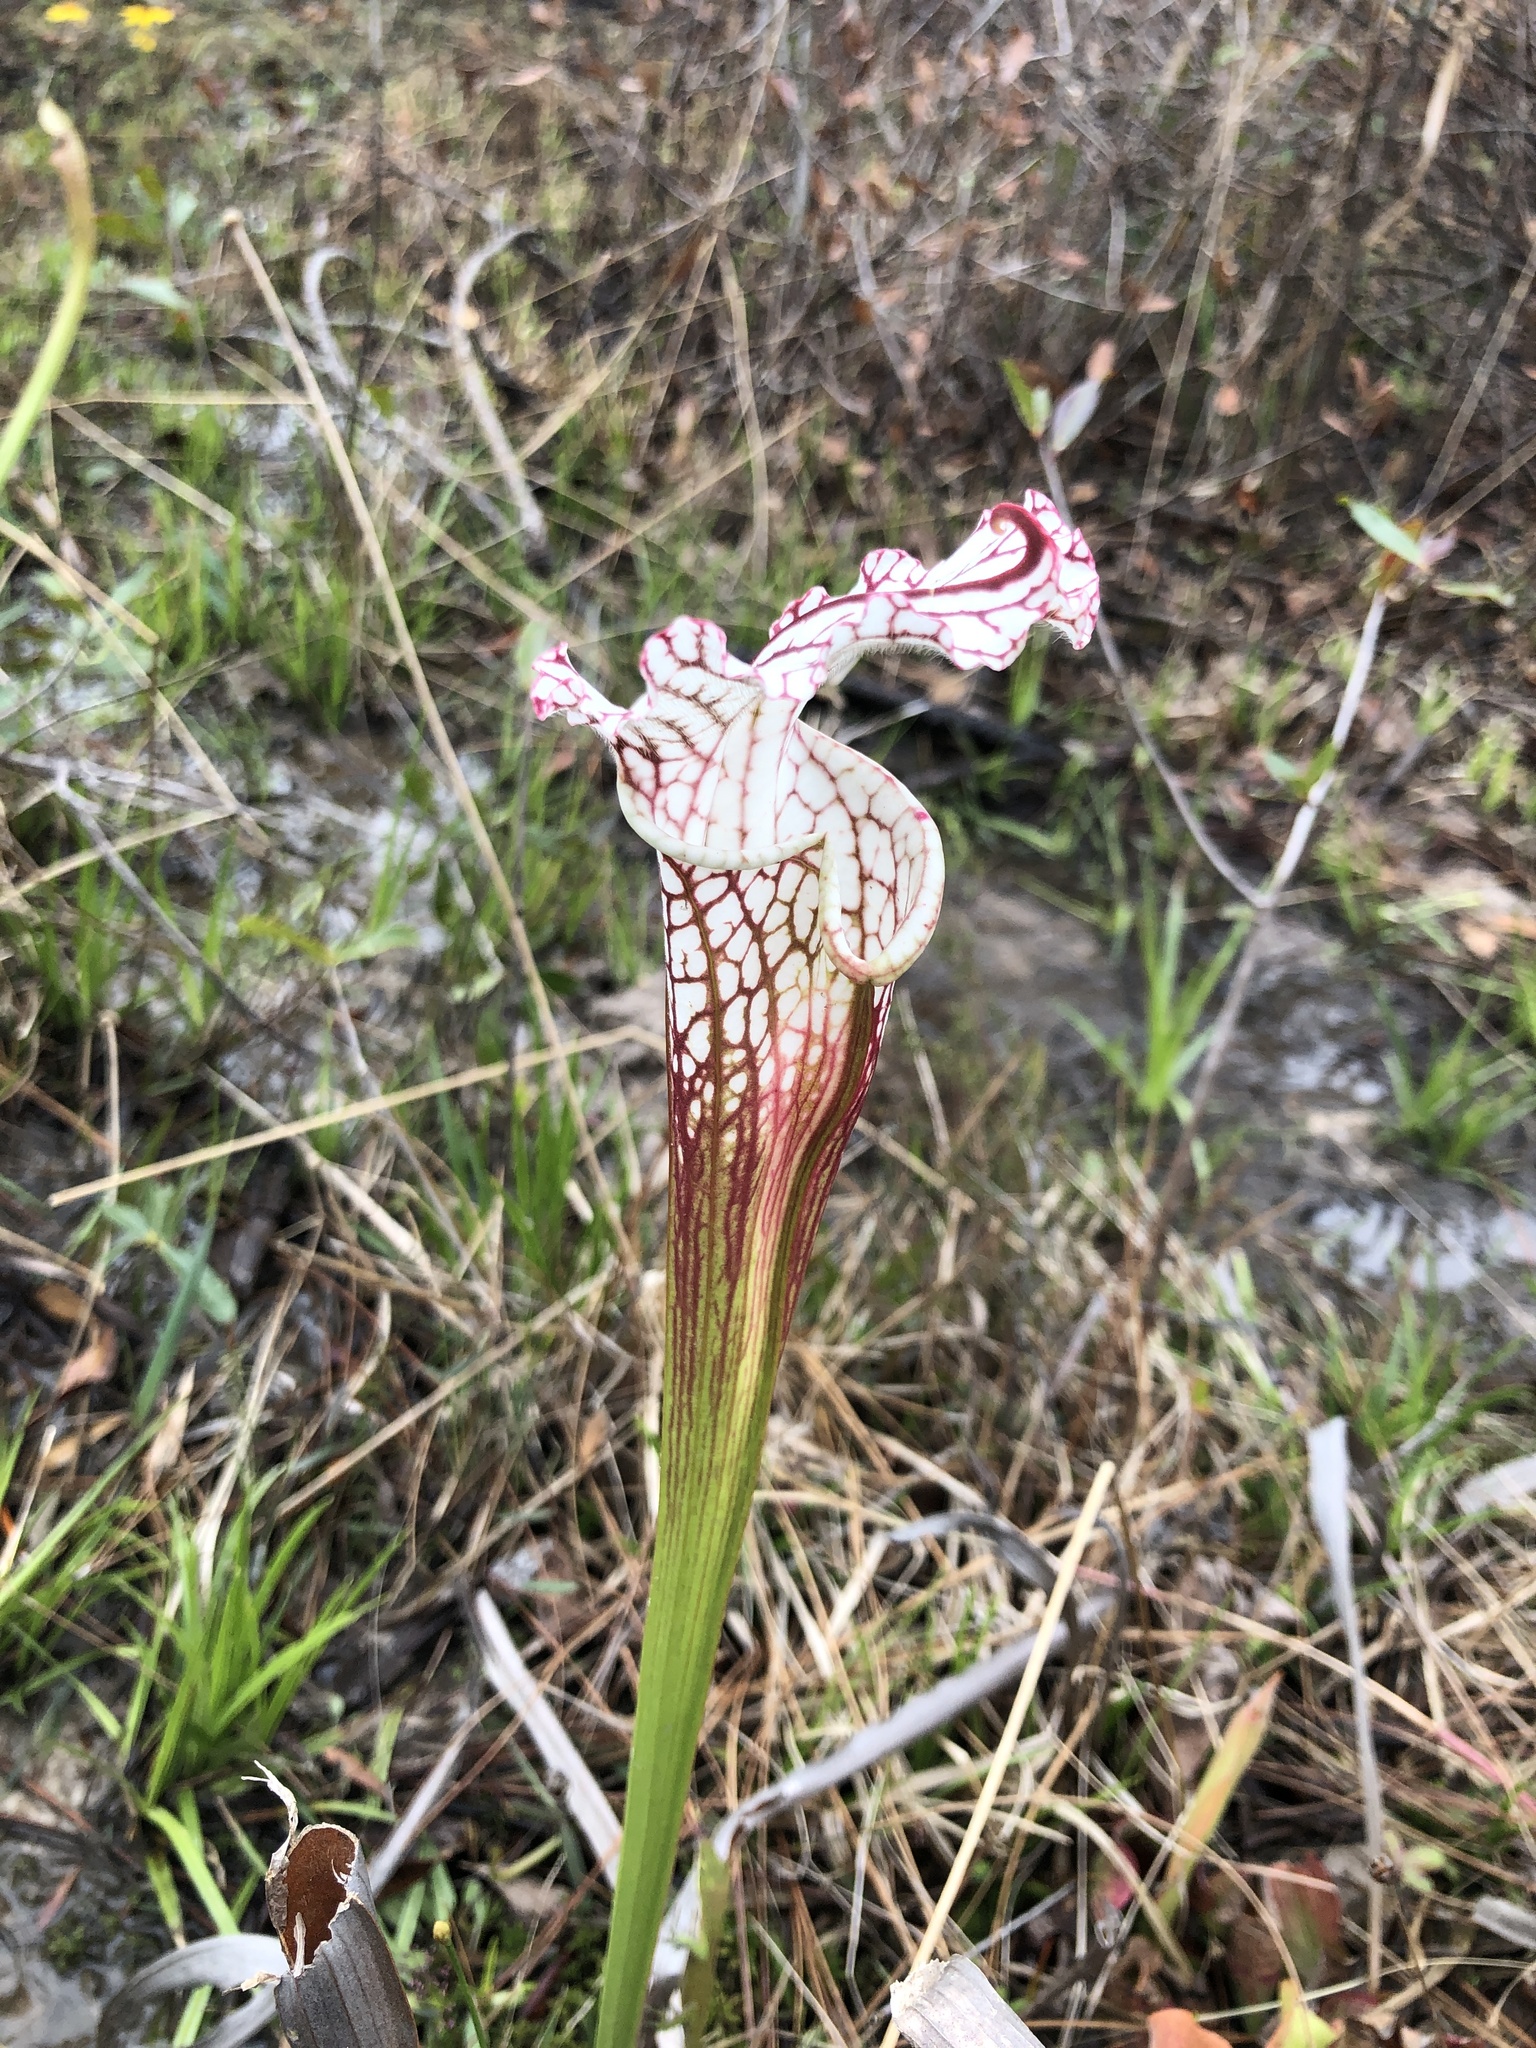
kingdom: Plantae
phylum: Tracheophyta
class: Magnoliopsida
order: Ericales
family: Sarraceniaceae
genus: Sarracenia
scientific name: Sarracenia leucophylla
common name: Purple trumpetleaf
